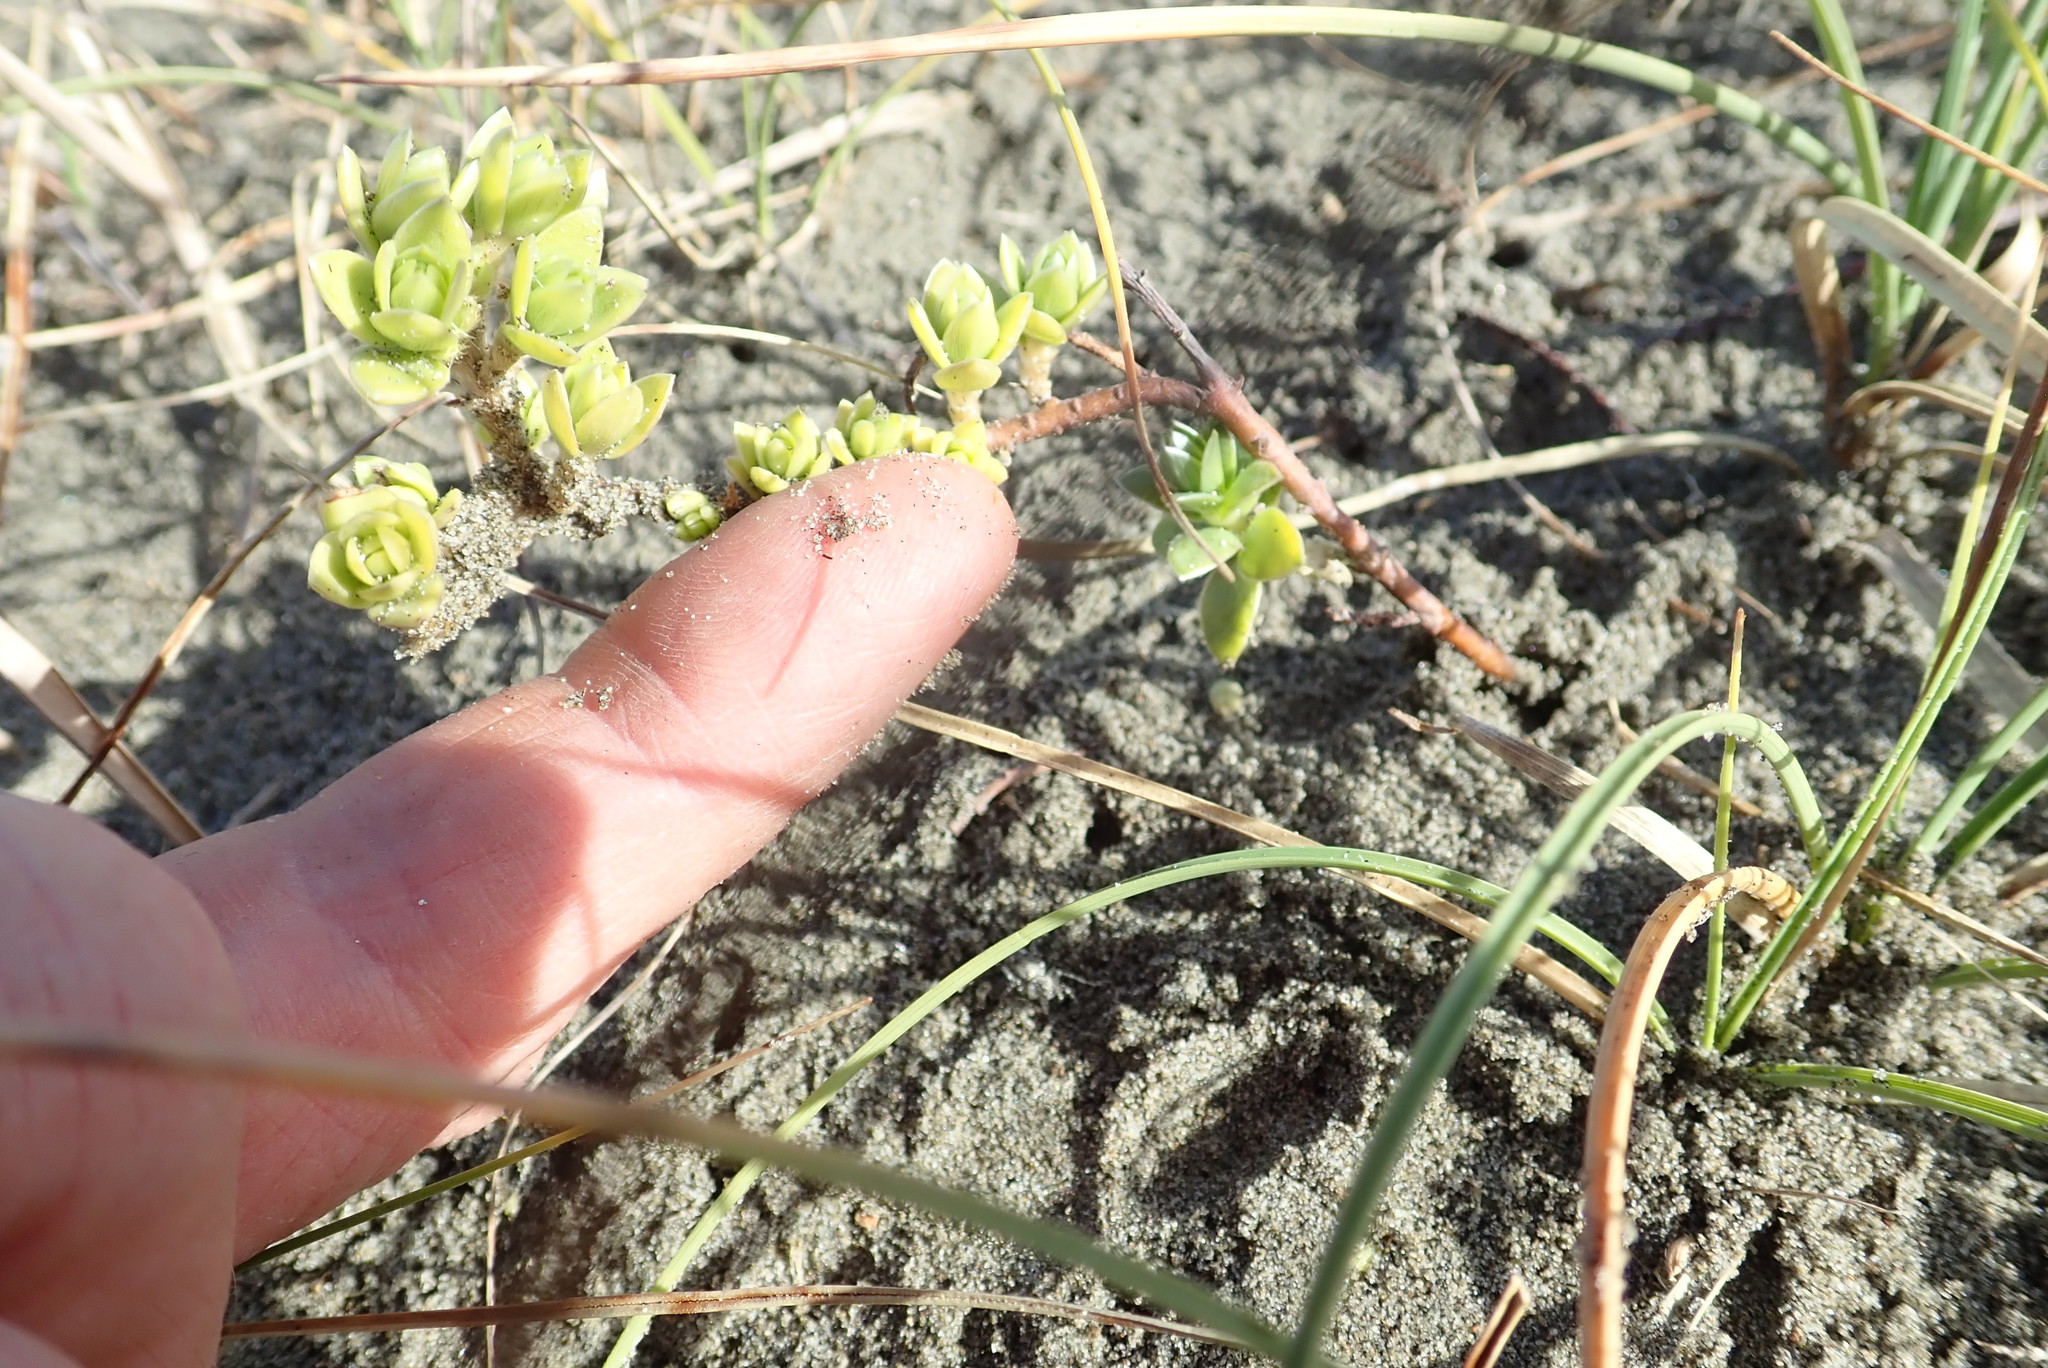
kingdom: Plantae
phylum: Tracheophyta
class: Magnoliopsida
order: Malvales
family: Thymelaeaceae
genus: Pimelea
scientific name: Pimelea villosa
